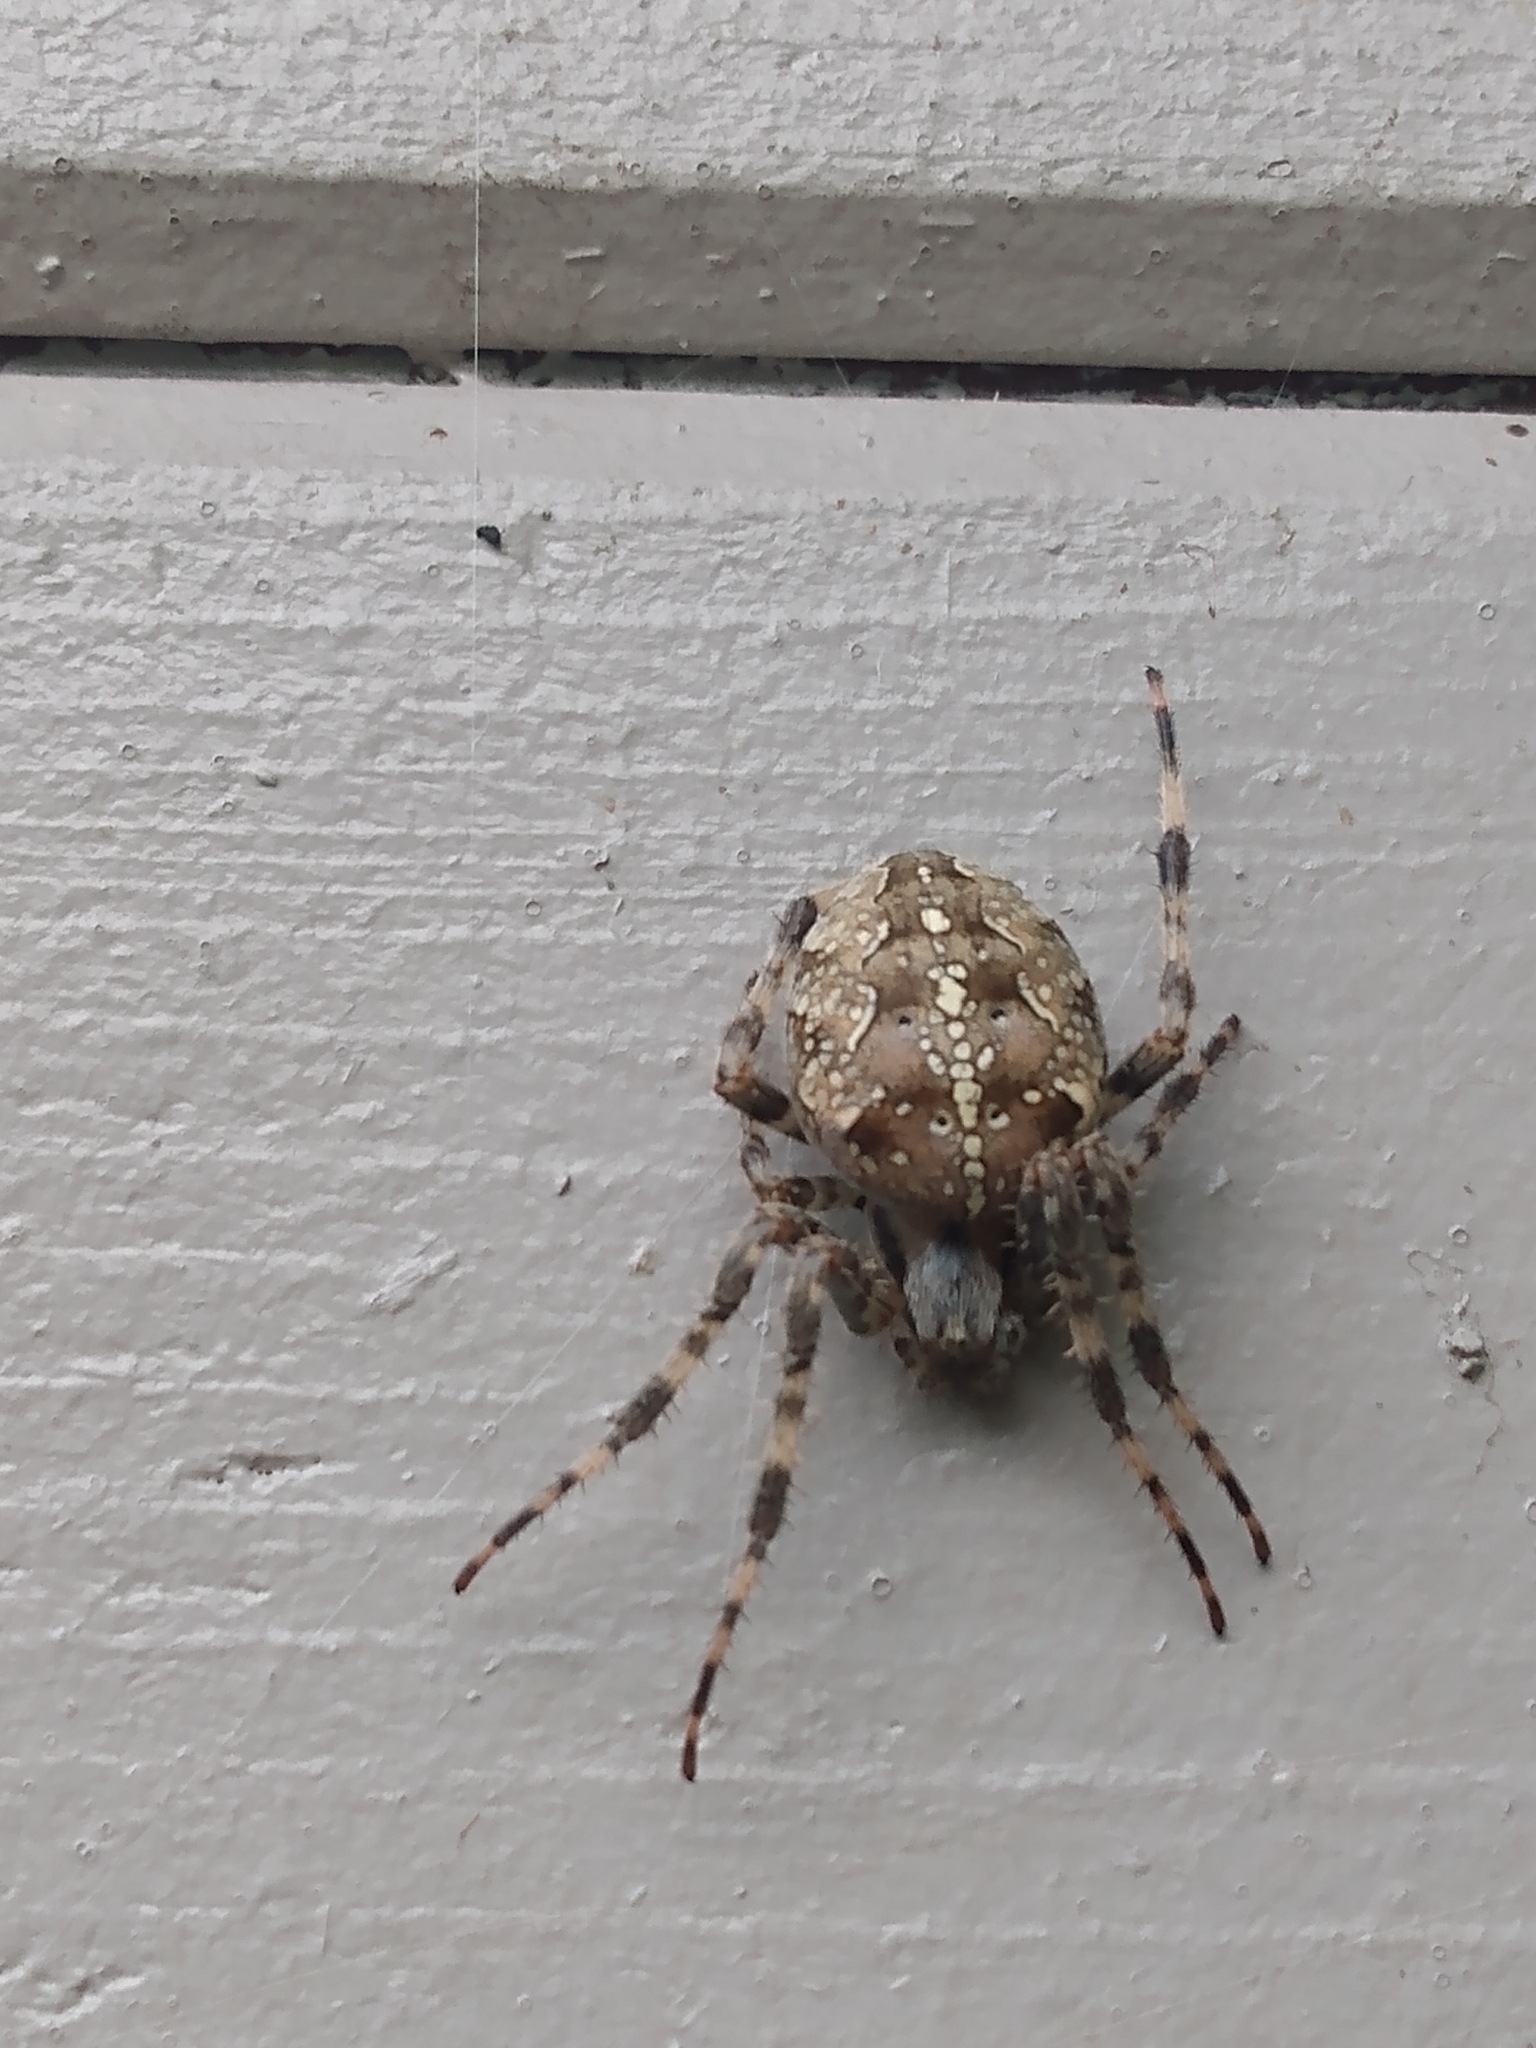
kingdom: Animalia
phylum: Arthropoda
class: Arachnida
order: Araneae
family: Araneidae
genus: Araneus
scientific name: Araneus diadematus
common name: Cross orbweaver
